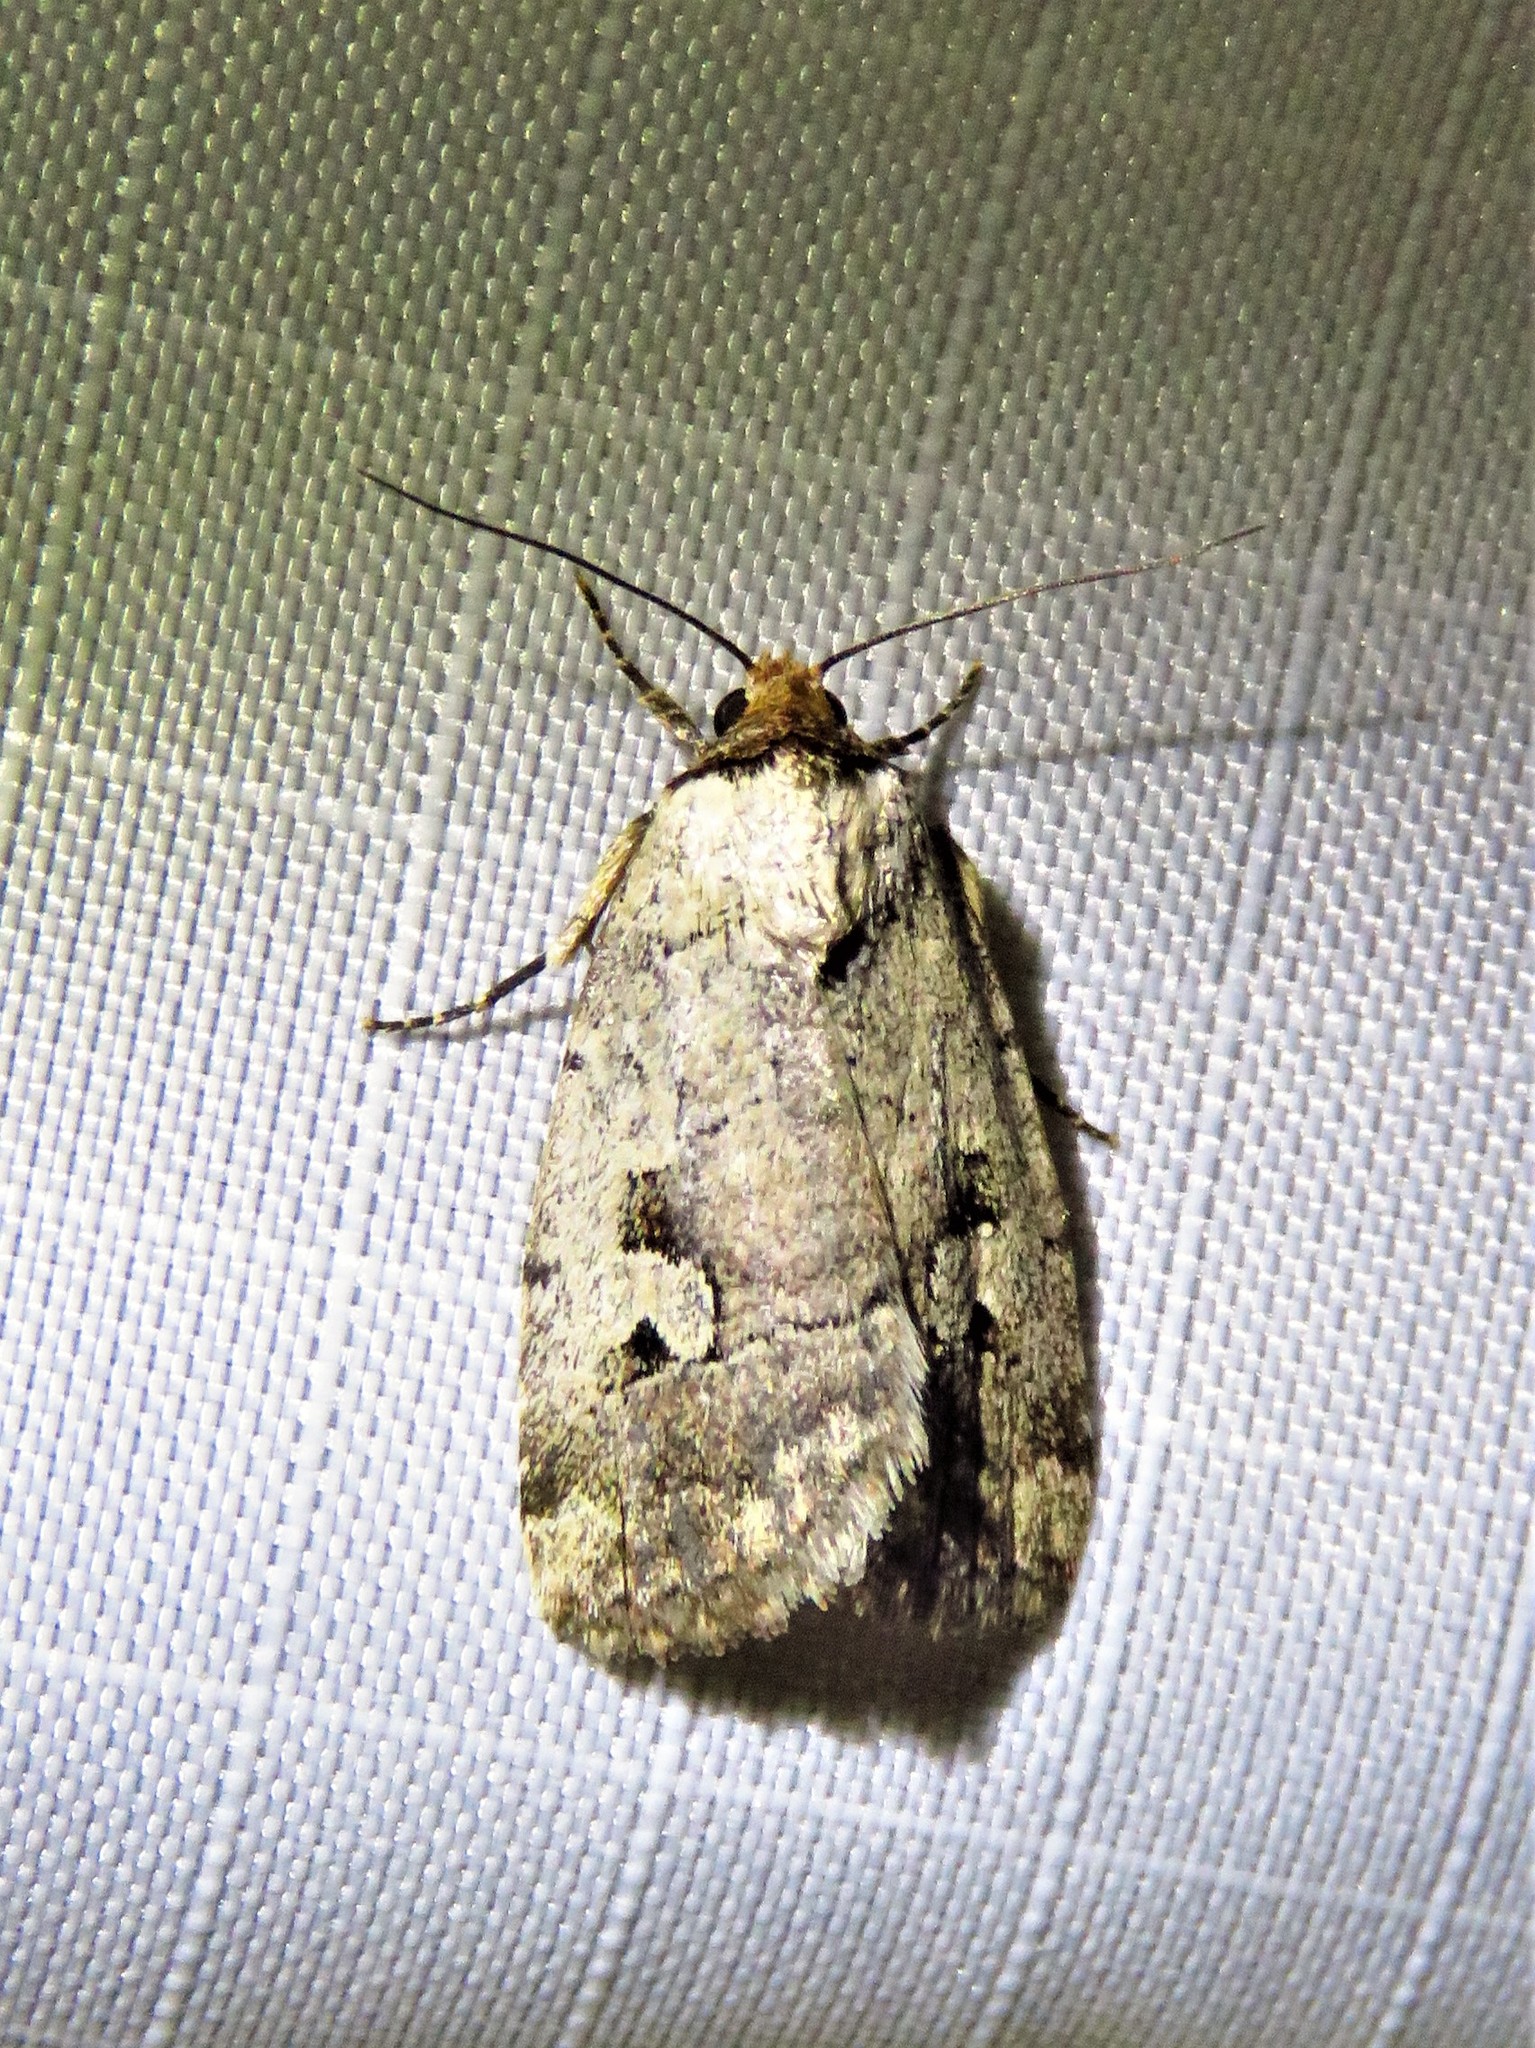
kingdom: Animalia
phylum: Arthropoda
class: Insecta
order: Lepidoptera
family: Noctuidae
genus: Elaphria
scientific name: Elaphria festivoides
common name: Festive midget
